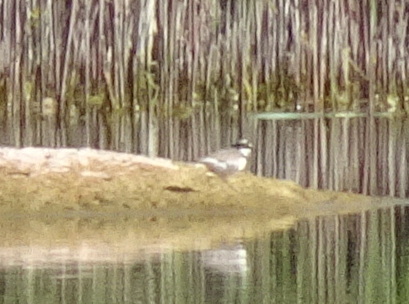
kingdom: Animalia
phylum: Chordata
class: Aves
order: Charadriiformes
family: Charadriidae
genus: Charadrius
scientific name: Charadrius dubius
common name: Little ringed plover
